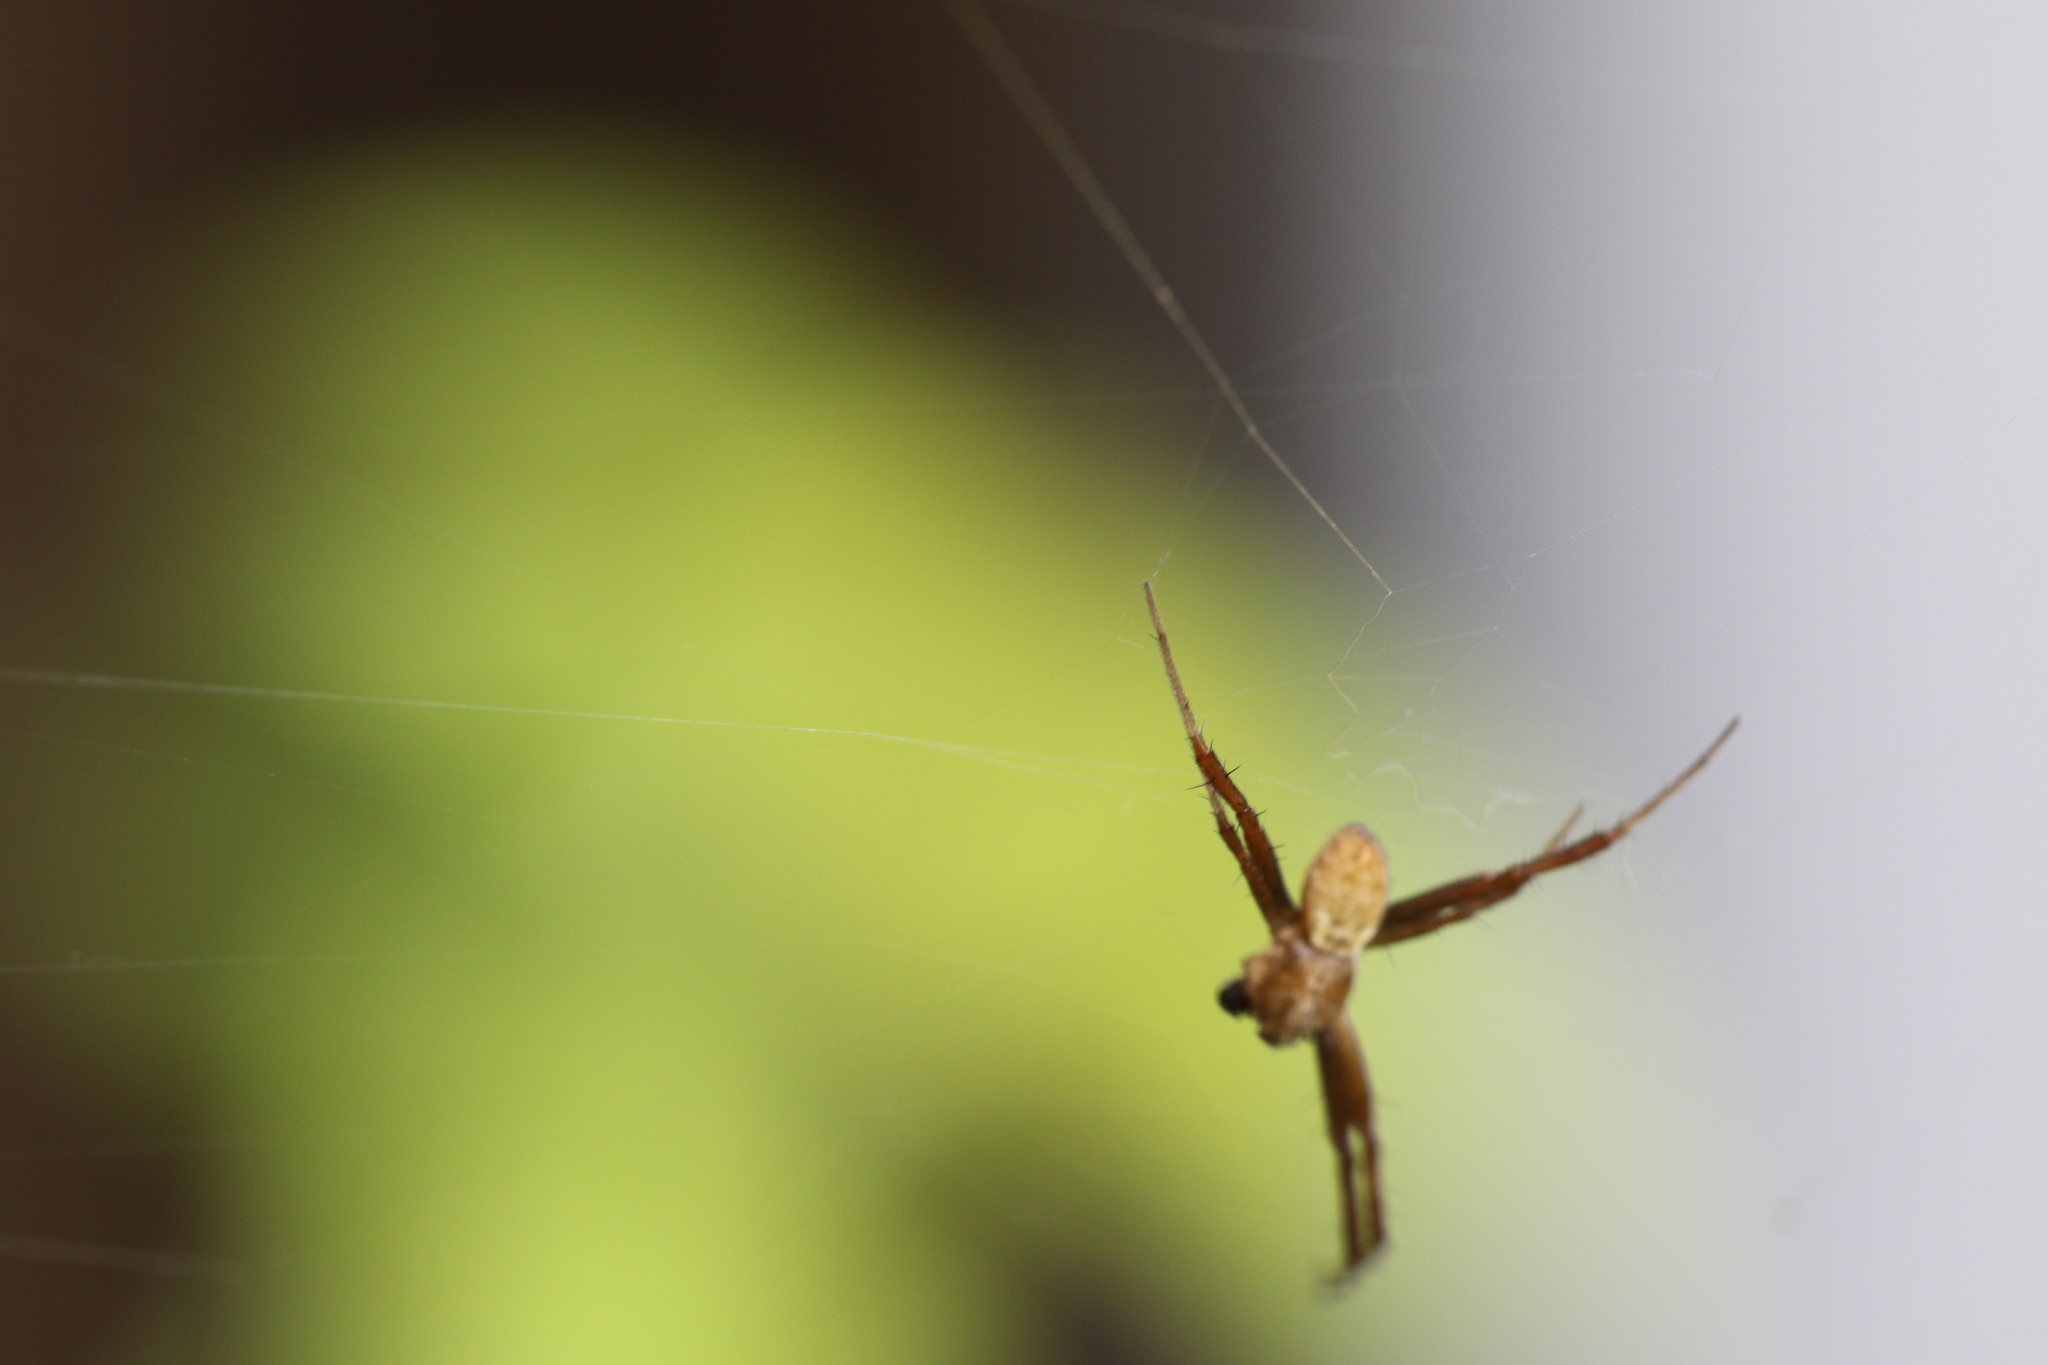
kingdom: Animalia
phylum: Arthropoda
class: Arachnida
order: Araneae
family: Araneidae
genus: Argiope
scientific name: Argiope argentata
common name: Orb weavers
